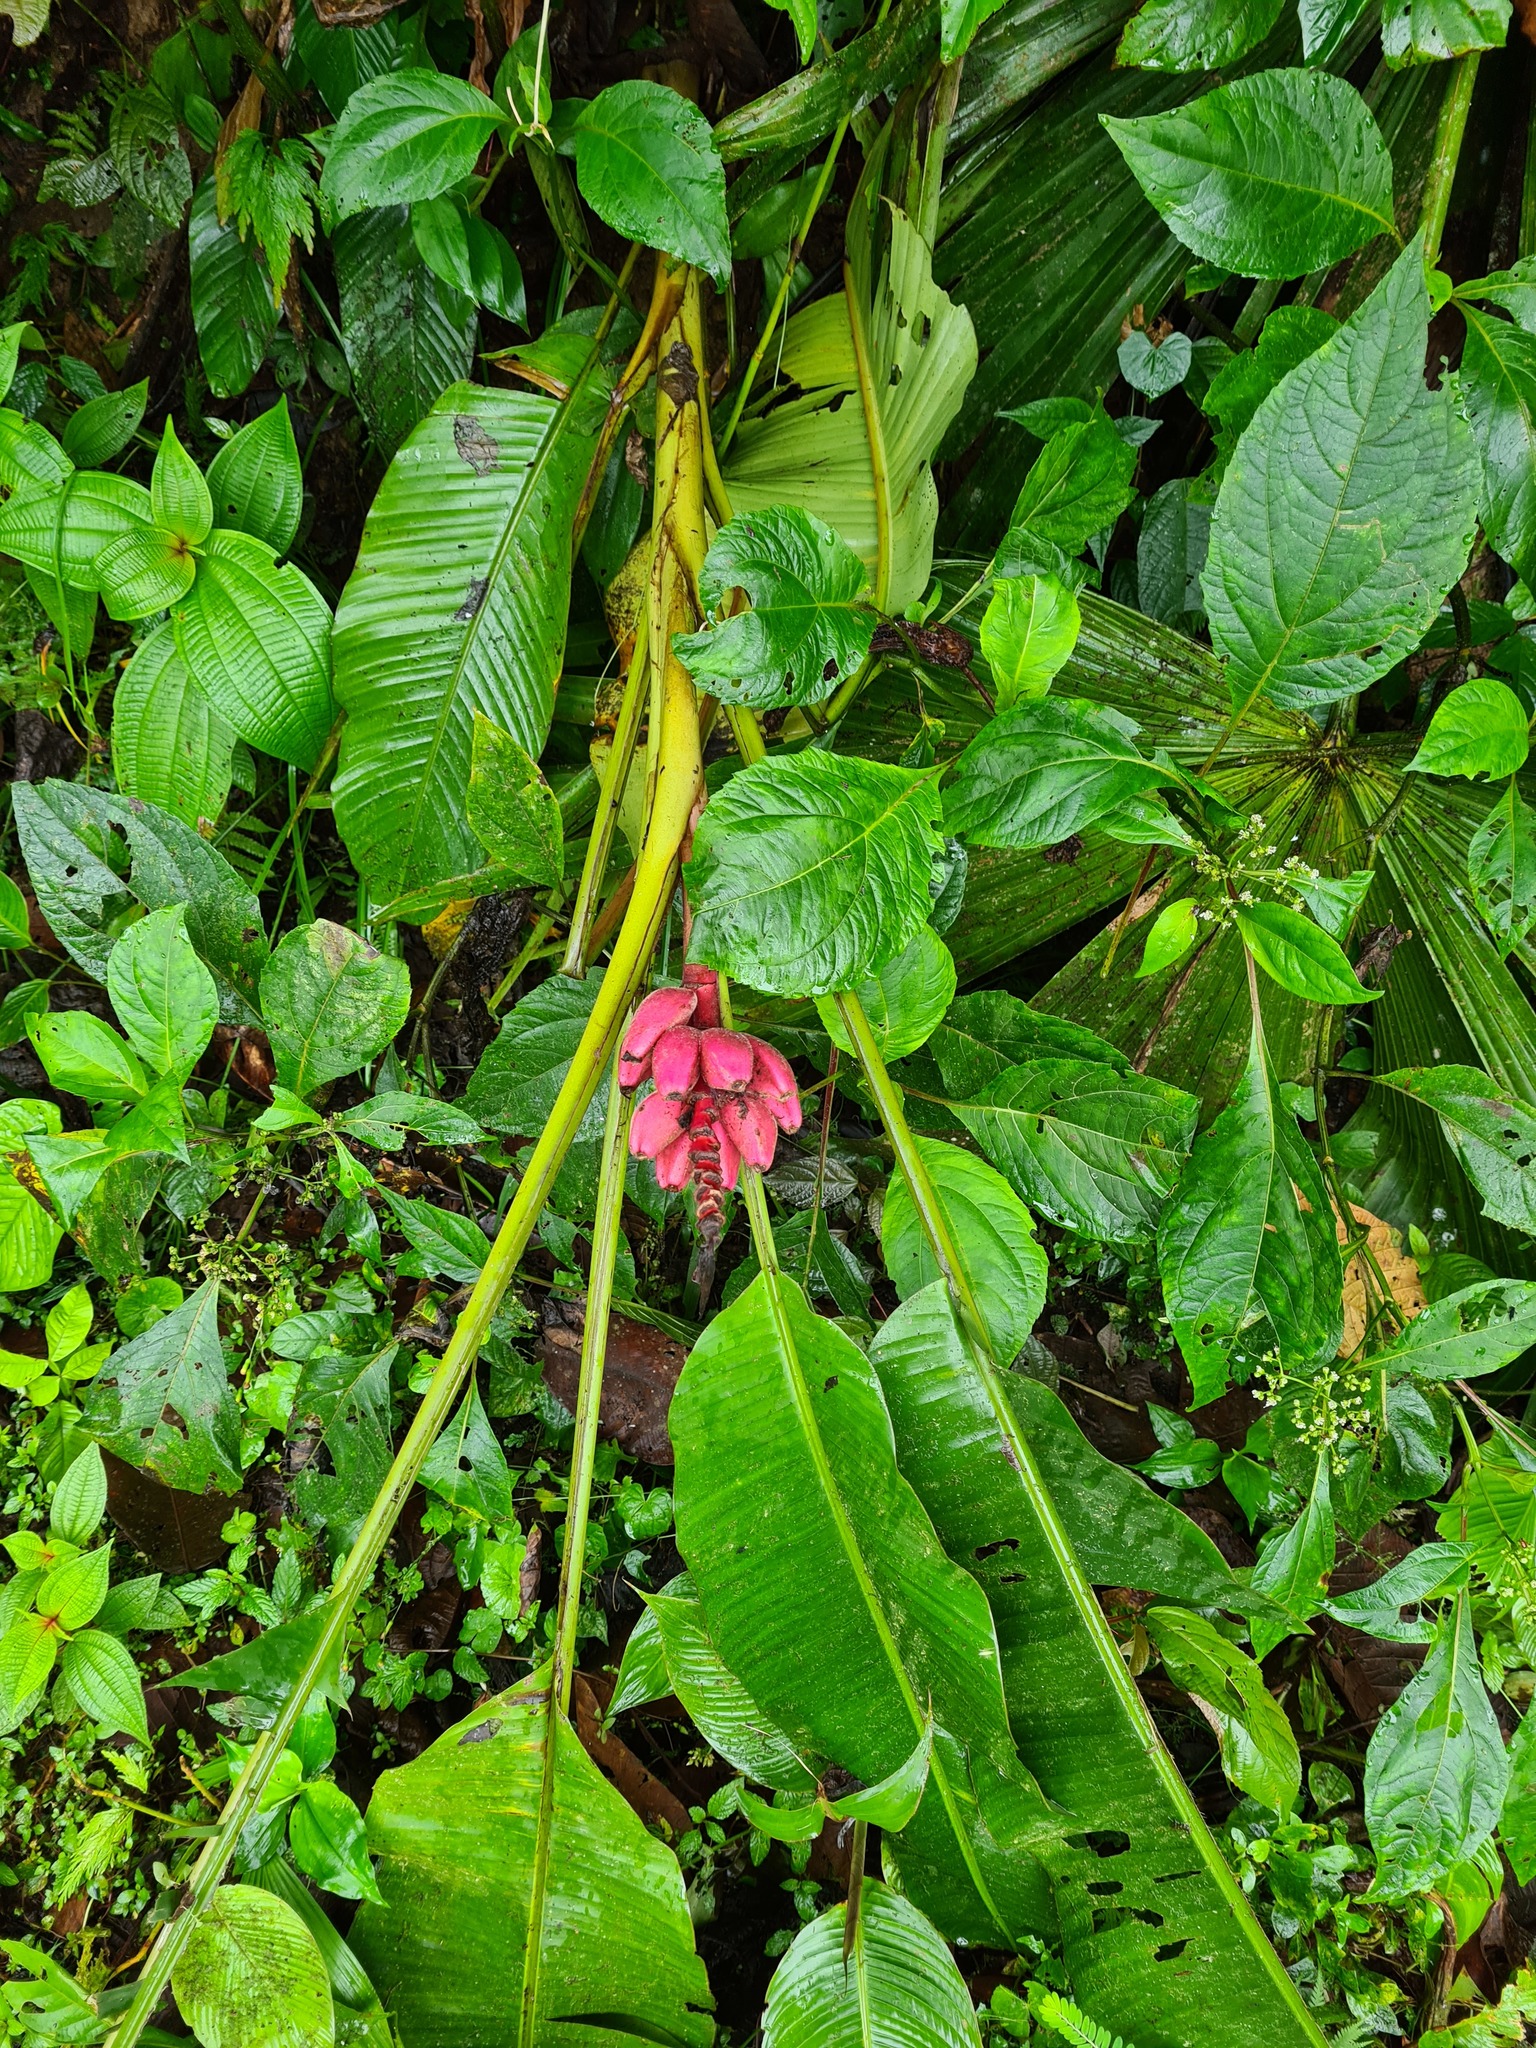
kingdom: Plantae
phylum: Tracheophyta
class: Liliopsida
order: Zingiberales
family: Musaceae
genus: Musa
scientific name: Musa velutina
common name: Pink velvet banana
